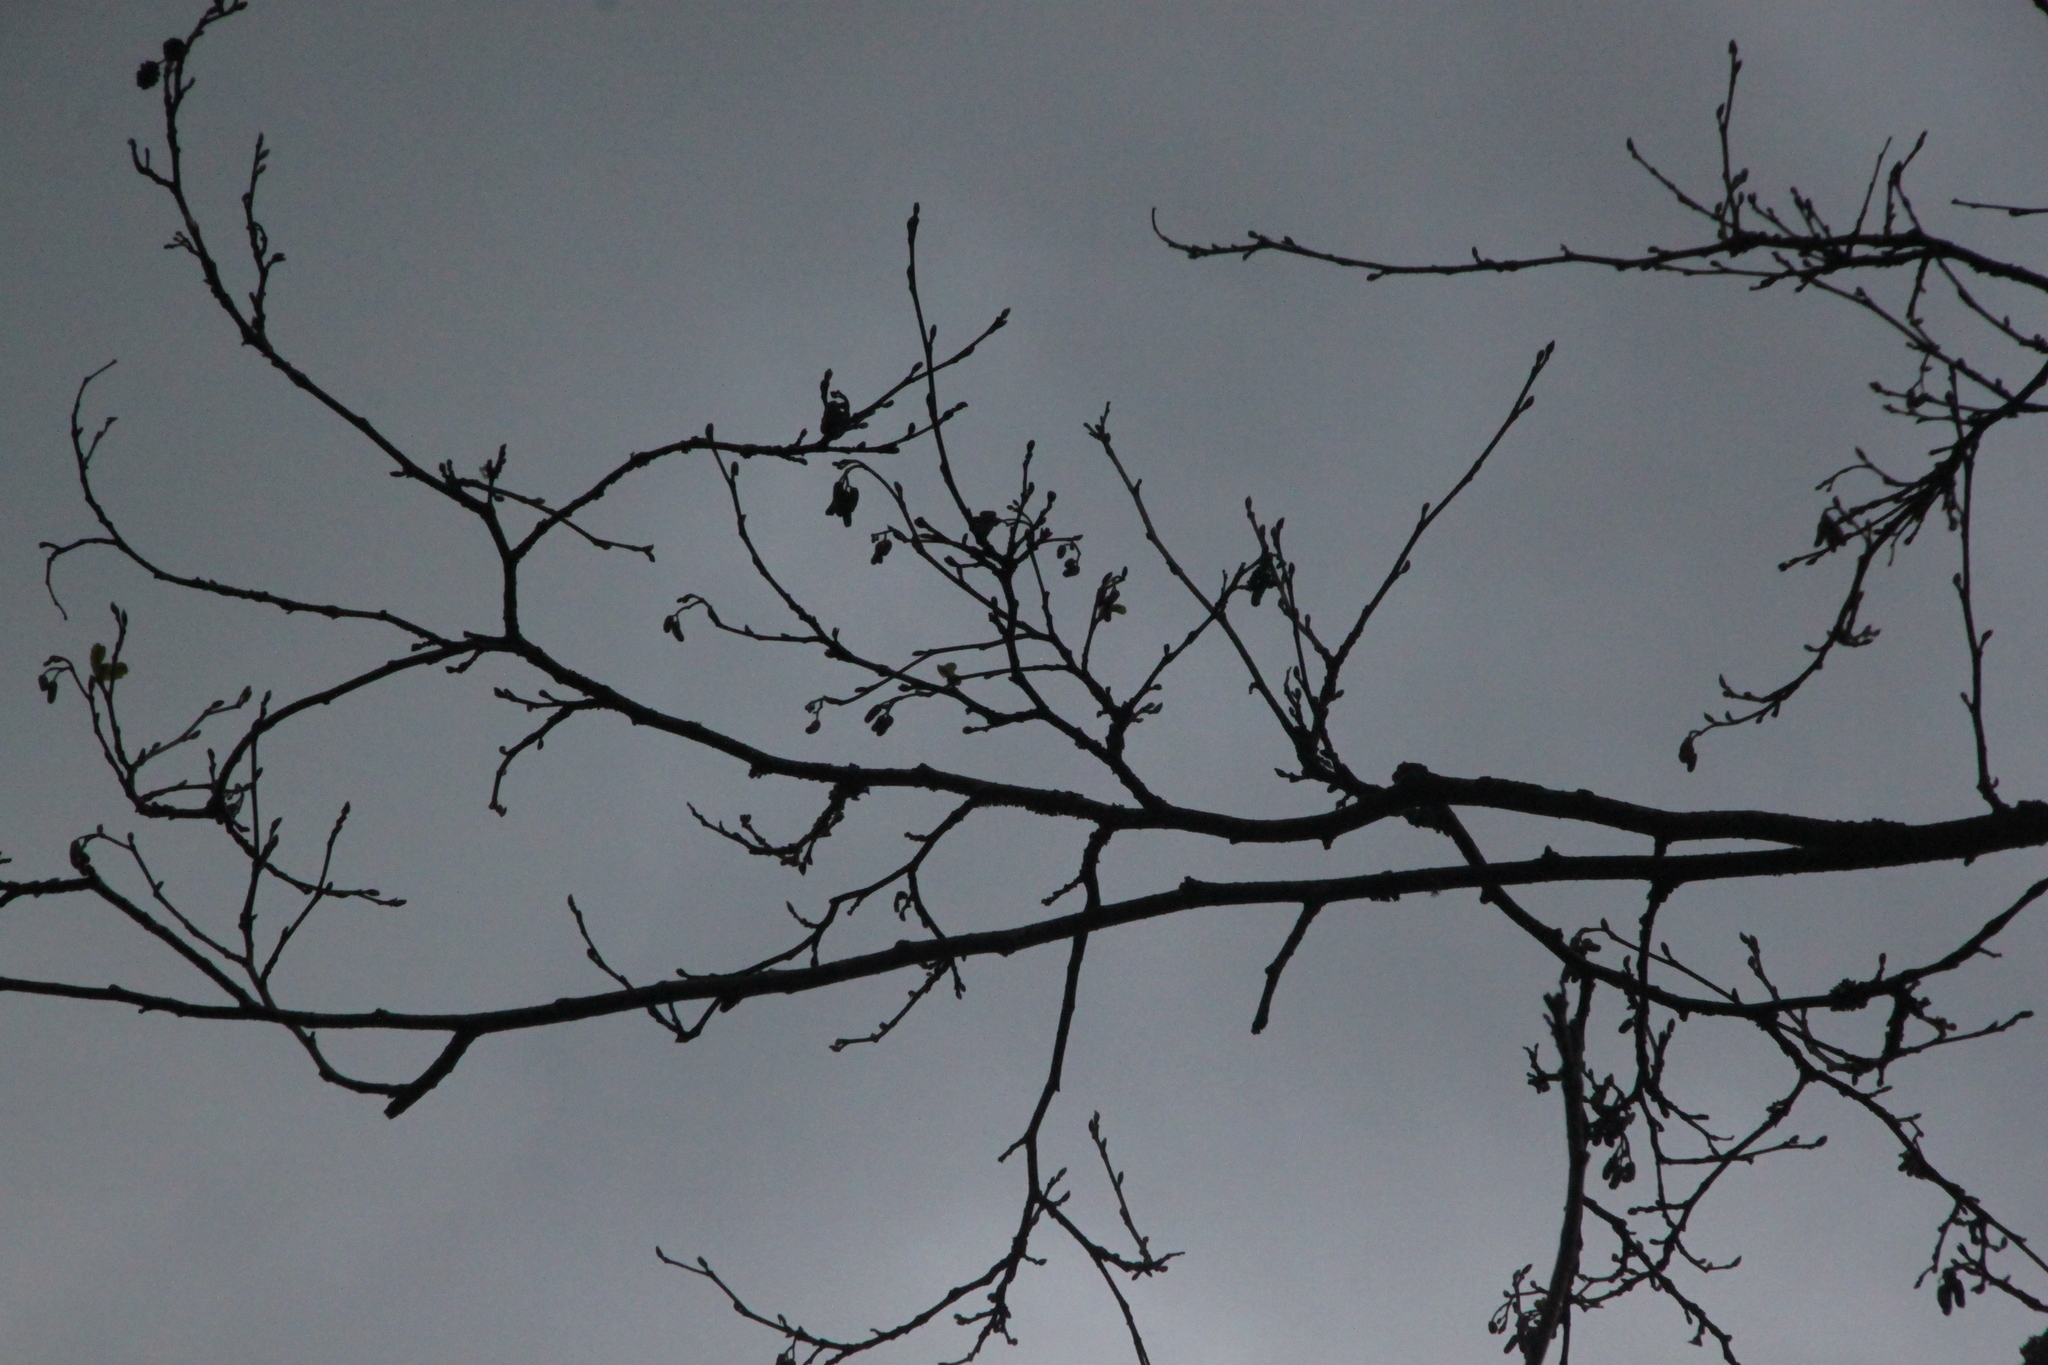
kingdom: Plantae
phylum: Tracheophyta
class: Magnoliopsida
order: Fagales
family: Betulaceae
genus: Alnus
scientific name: Alnus glutinosa
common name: Black alder
